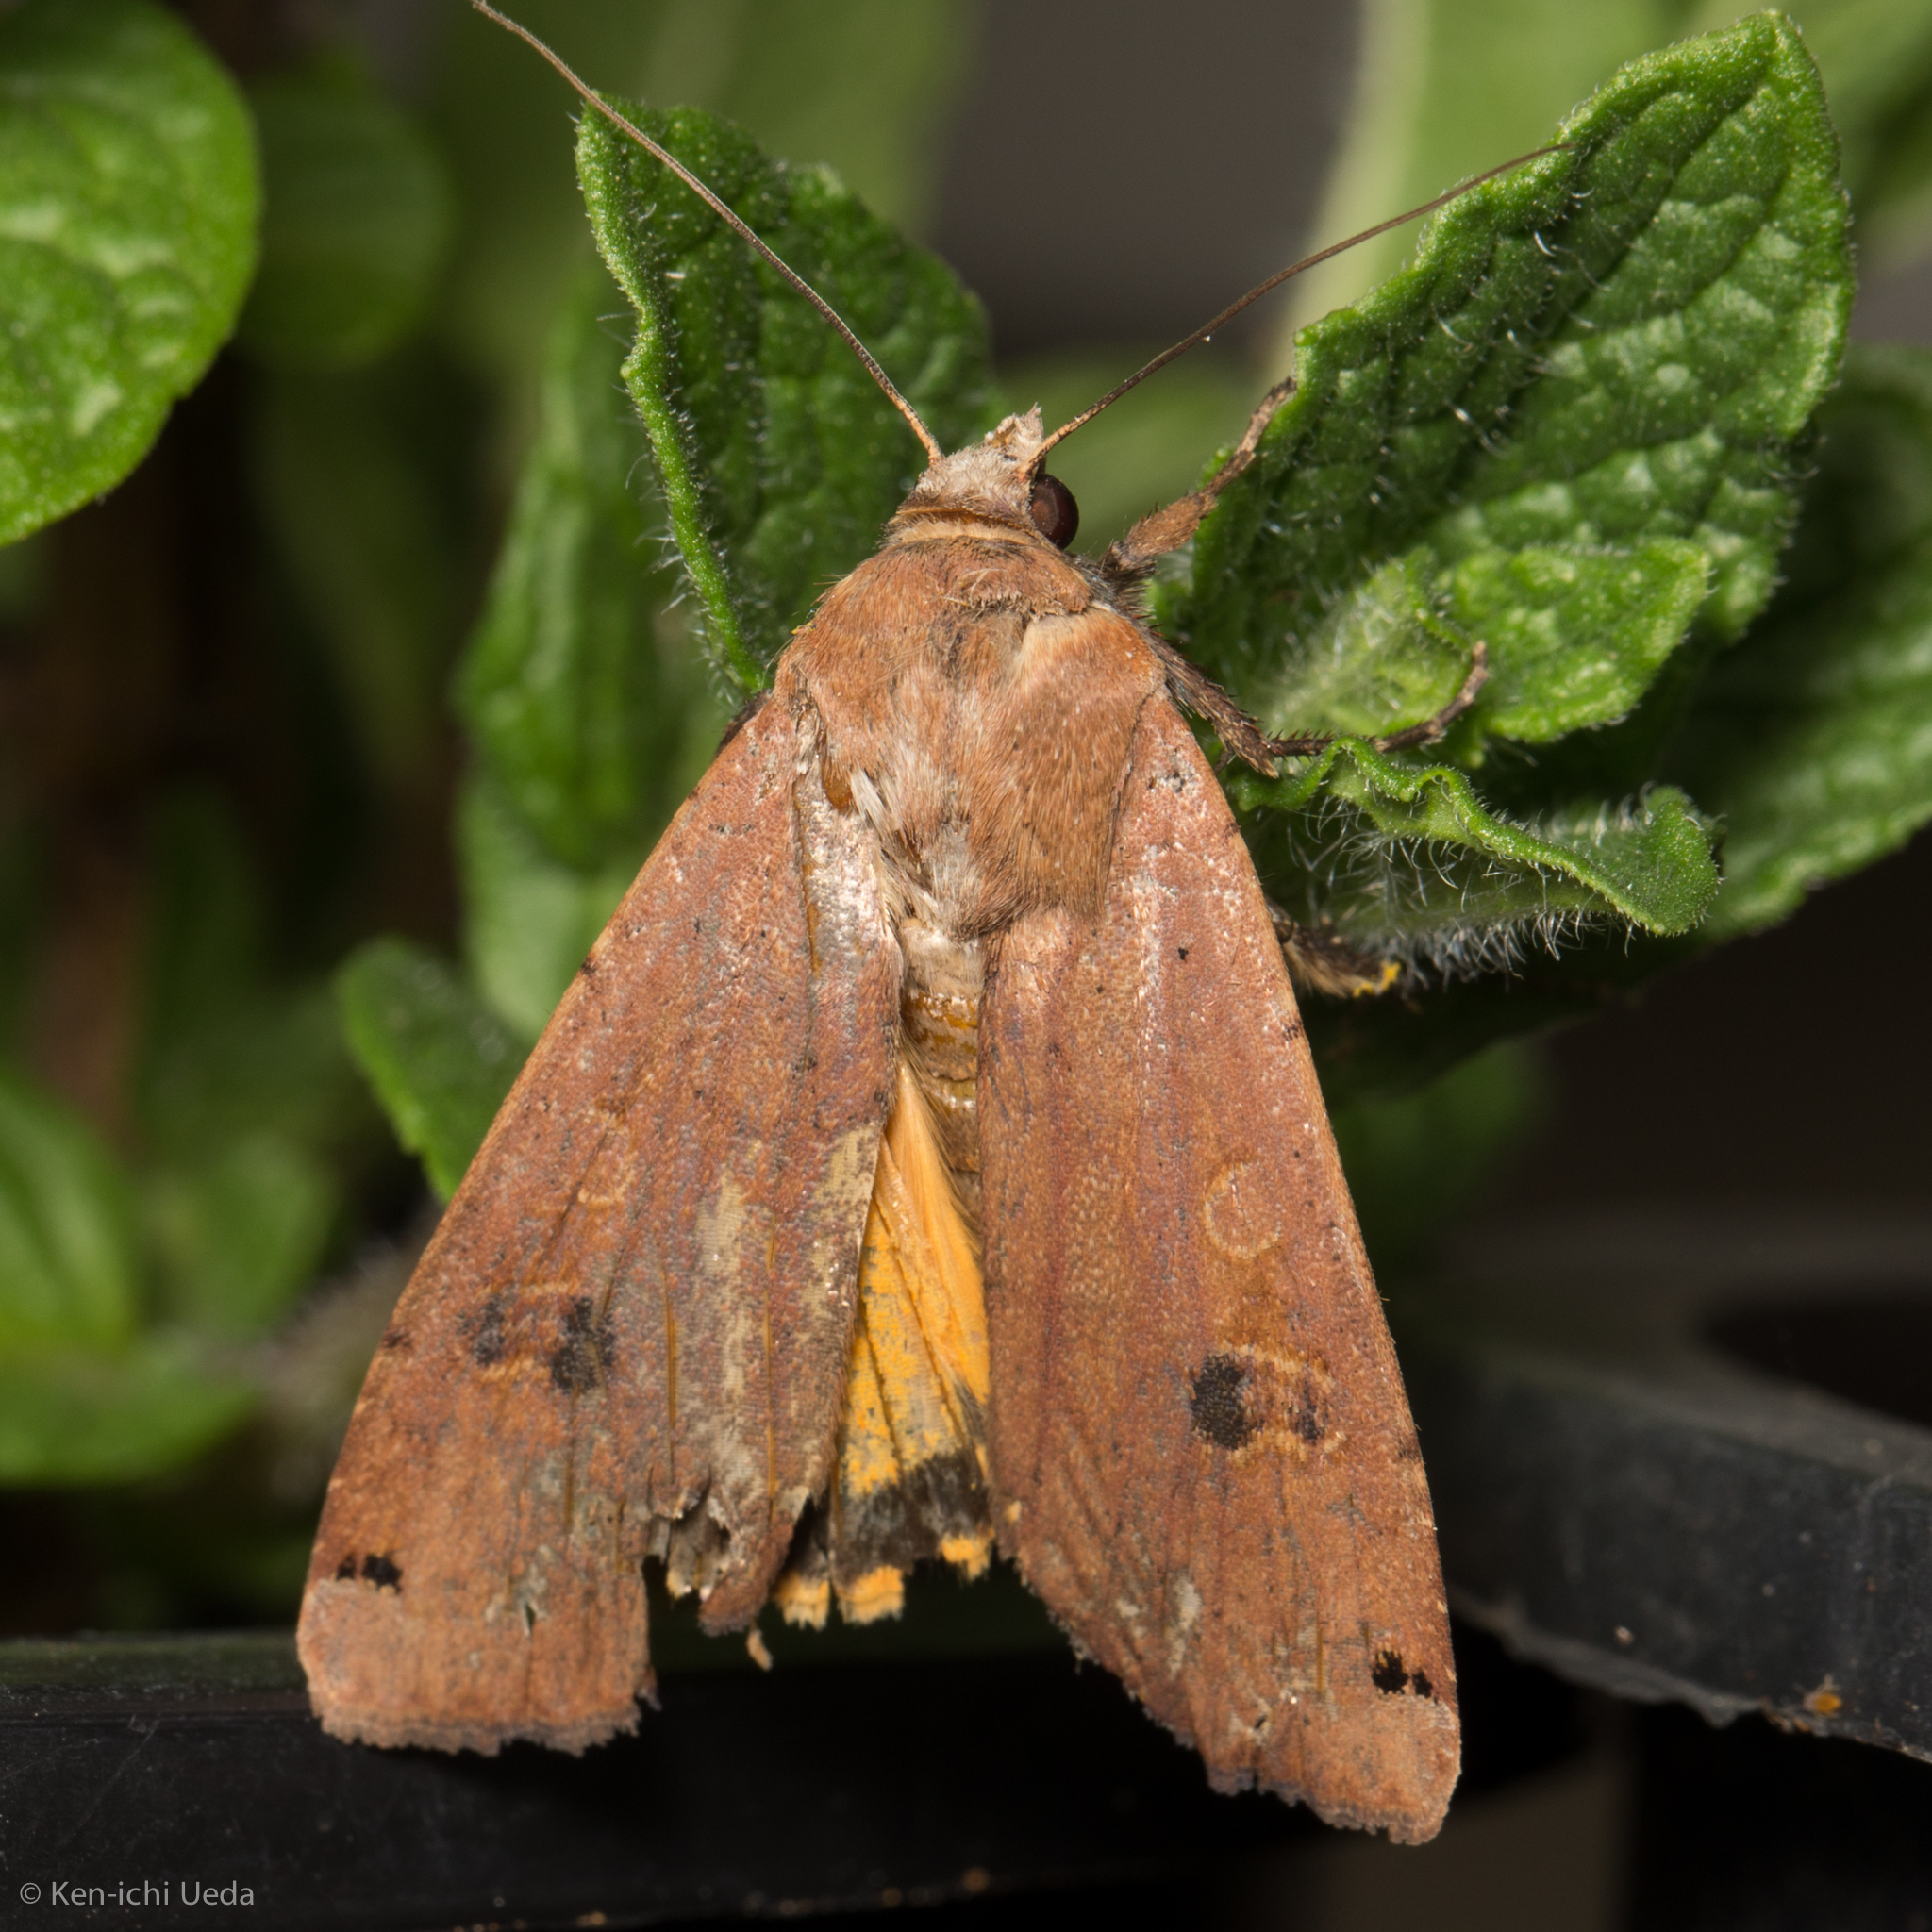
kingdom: Animalia
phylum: Arthropoda
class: Insecta
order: Lepidoptera
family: Noctuidae
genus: Noctua
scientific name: Noctua pronuba
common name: Large yellow underwing
